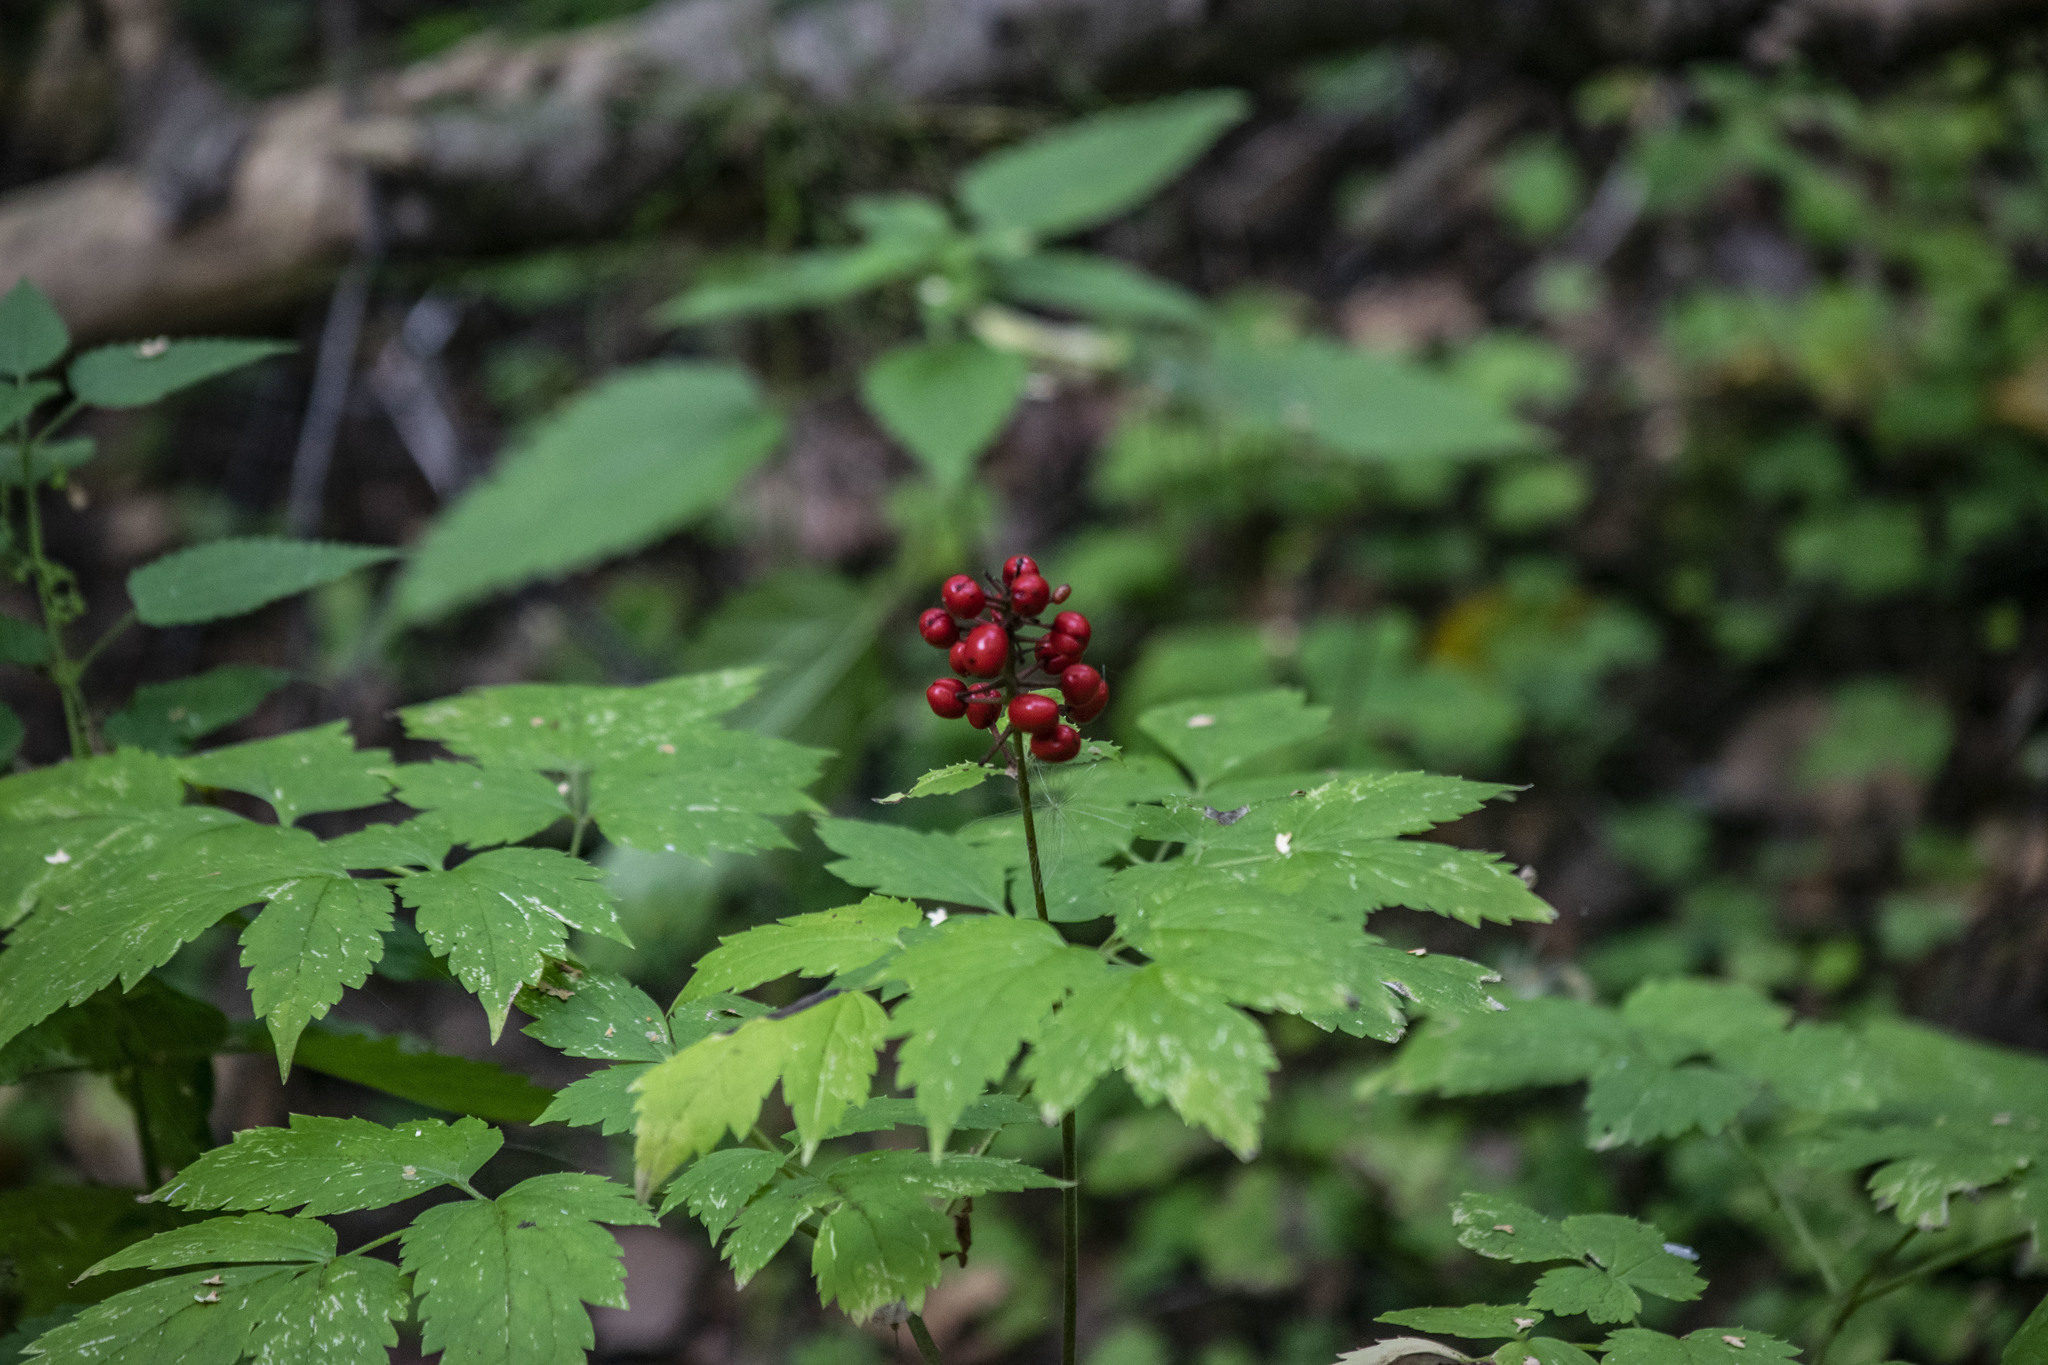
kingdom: Plantae
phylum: Tracheophyta
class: Magnoliopsida
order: Ranunculales
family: Ranunculaceae
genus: Actaea
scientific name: Actaea spicata
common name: Baneberry
